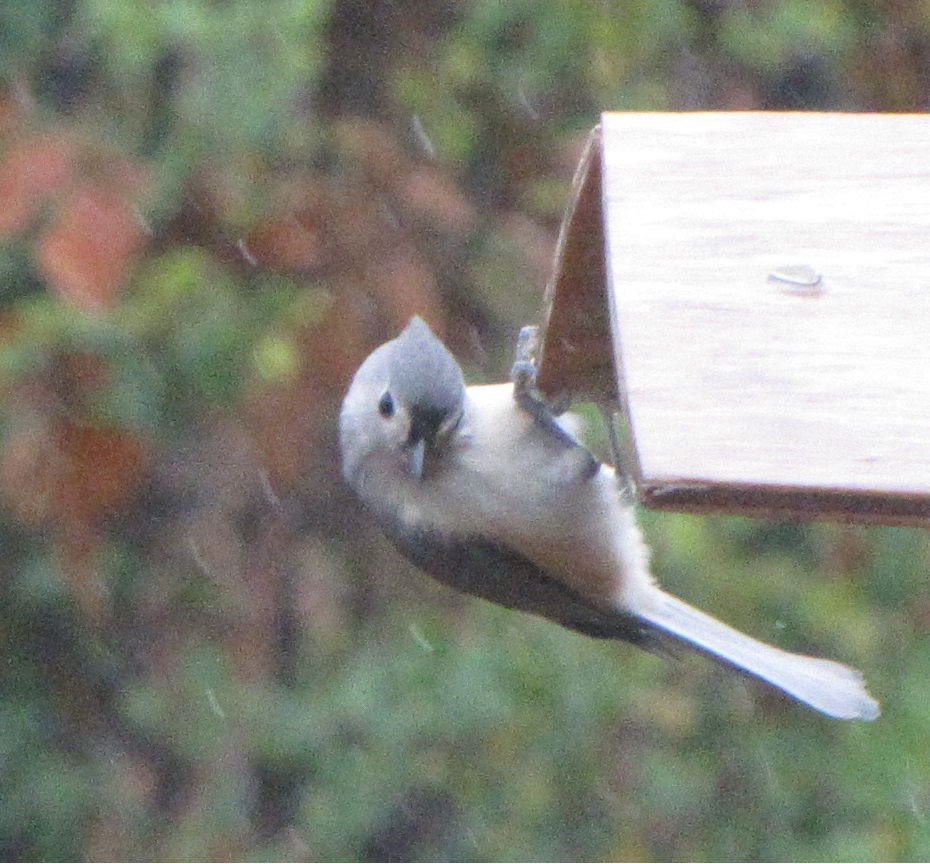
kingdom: Animalia
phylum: Chordata
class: Aves
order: Passeriformes
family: Paridae
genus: Baeolophus
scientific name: Baeolophus bicolor
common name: Tufted titmouse
